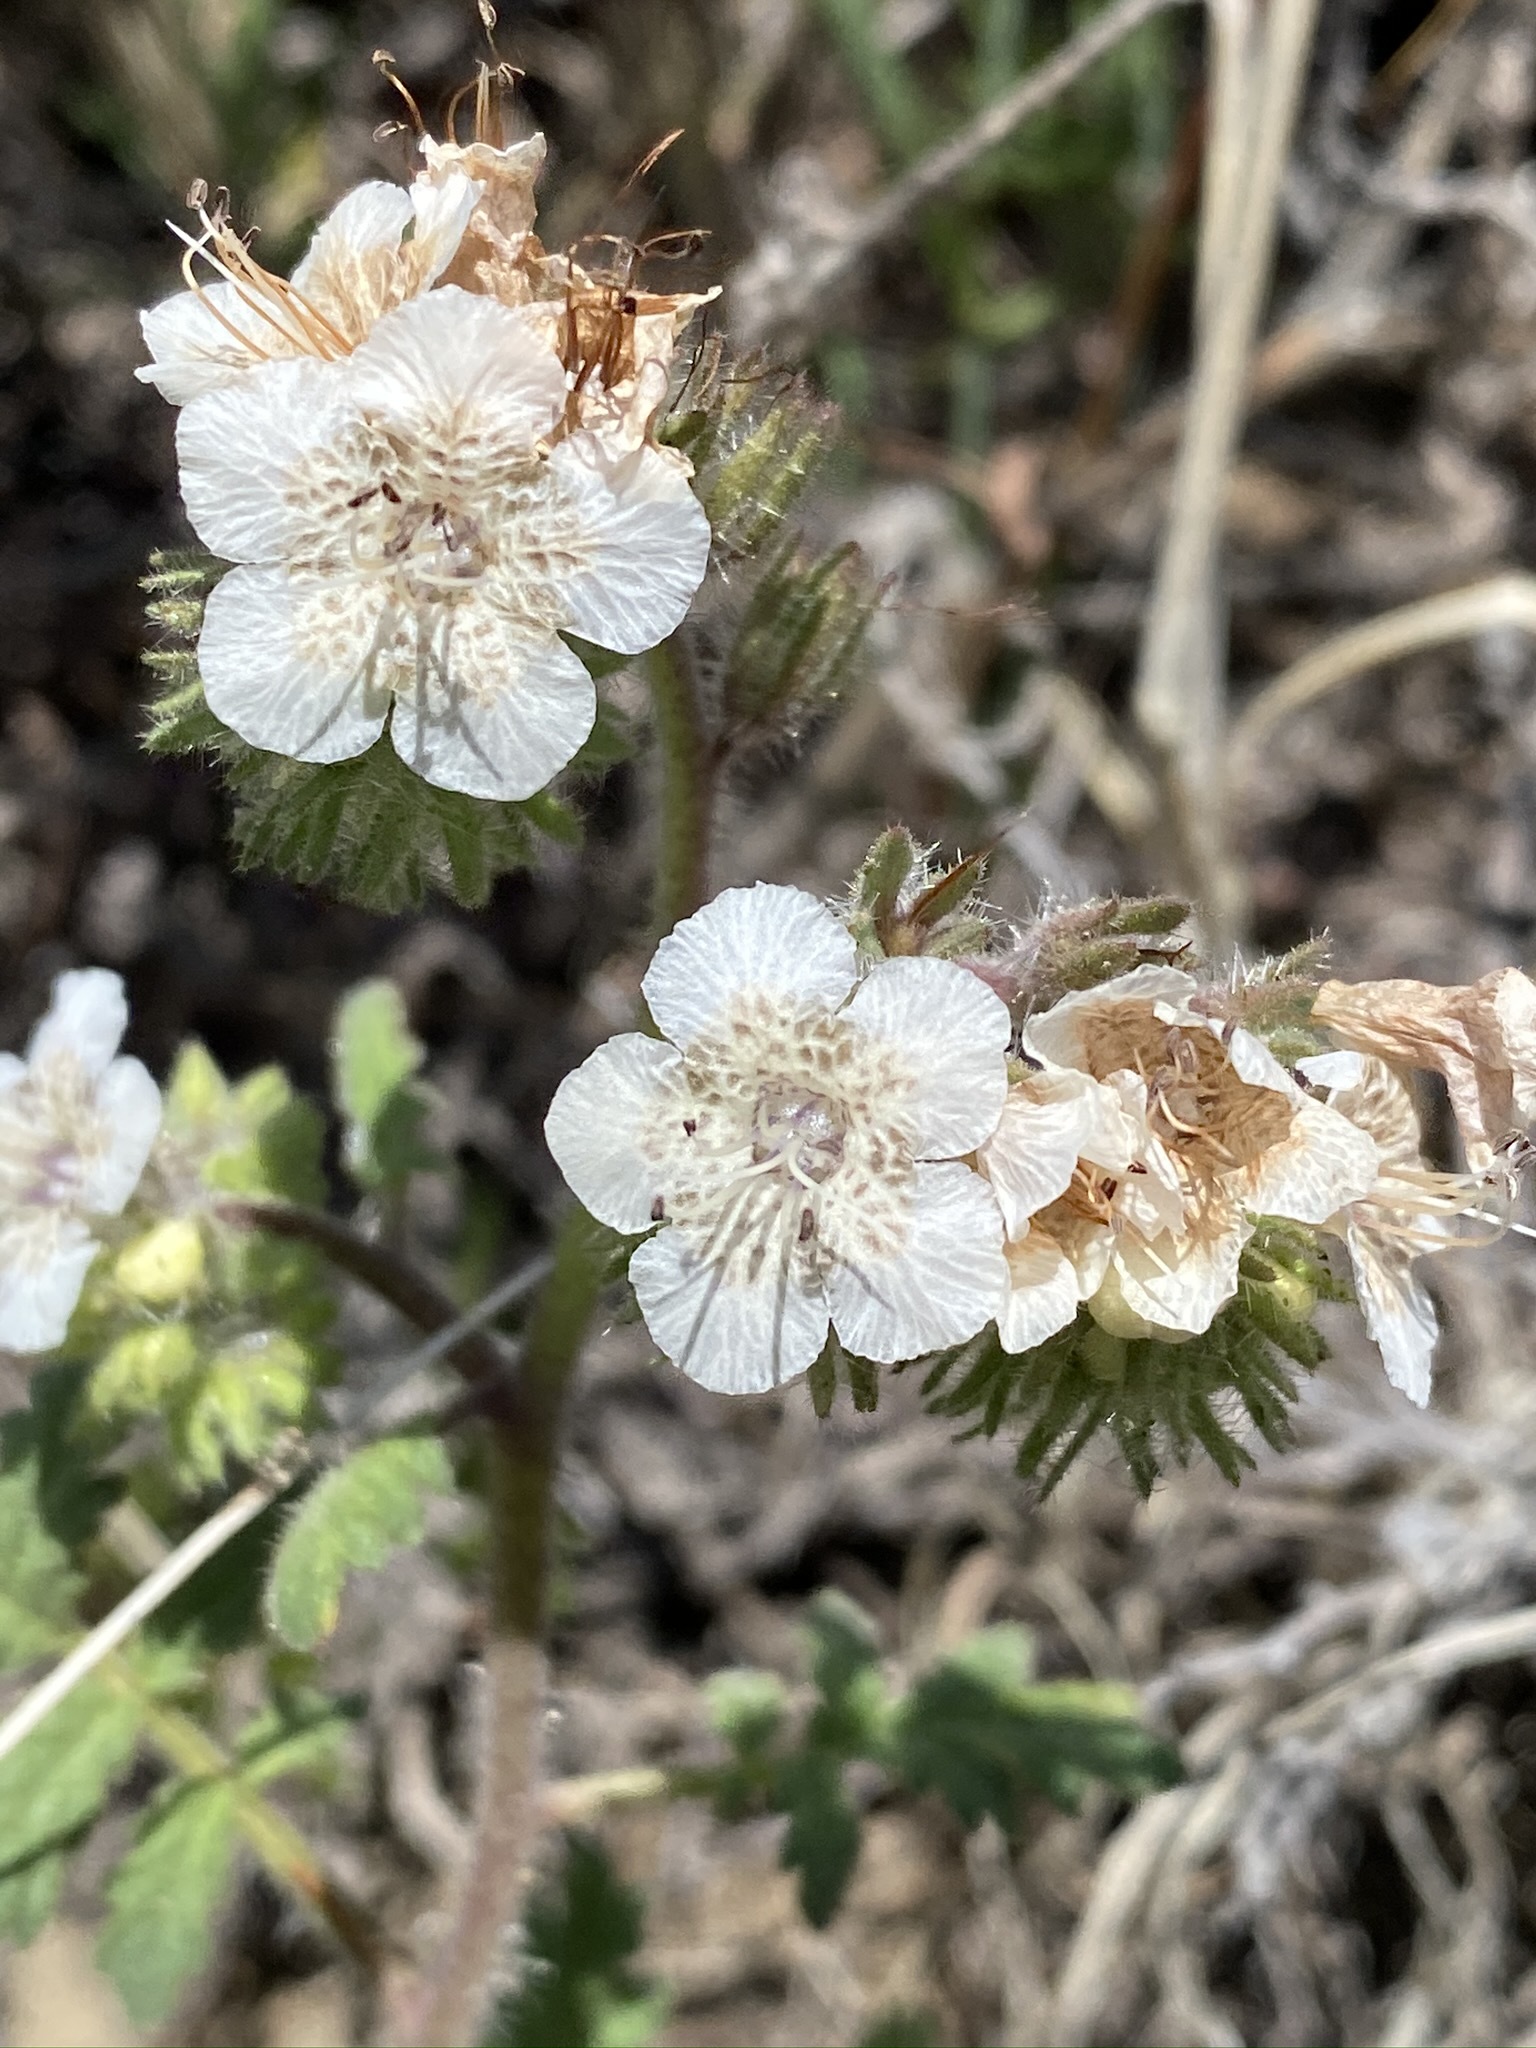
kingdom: Plantae
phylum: Tracheophyta
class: Magnoliopsida
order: Boraginales
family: Hydrophyllaceae
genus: Phacelia
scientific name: Phacelia cicutaria
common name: Caterpillar phacelia
